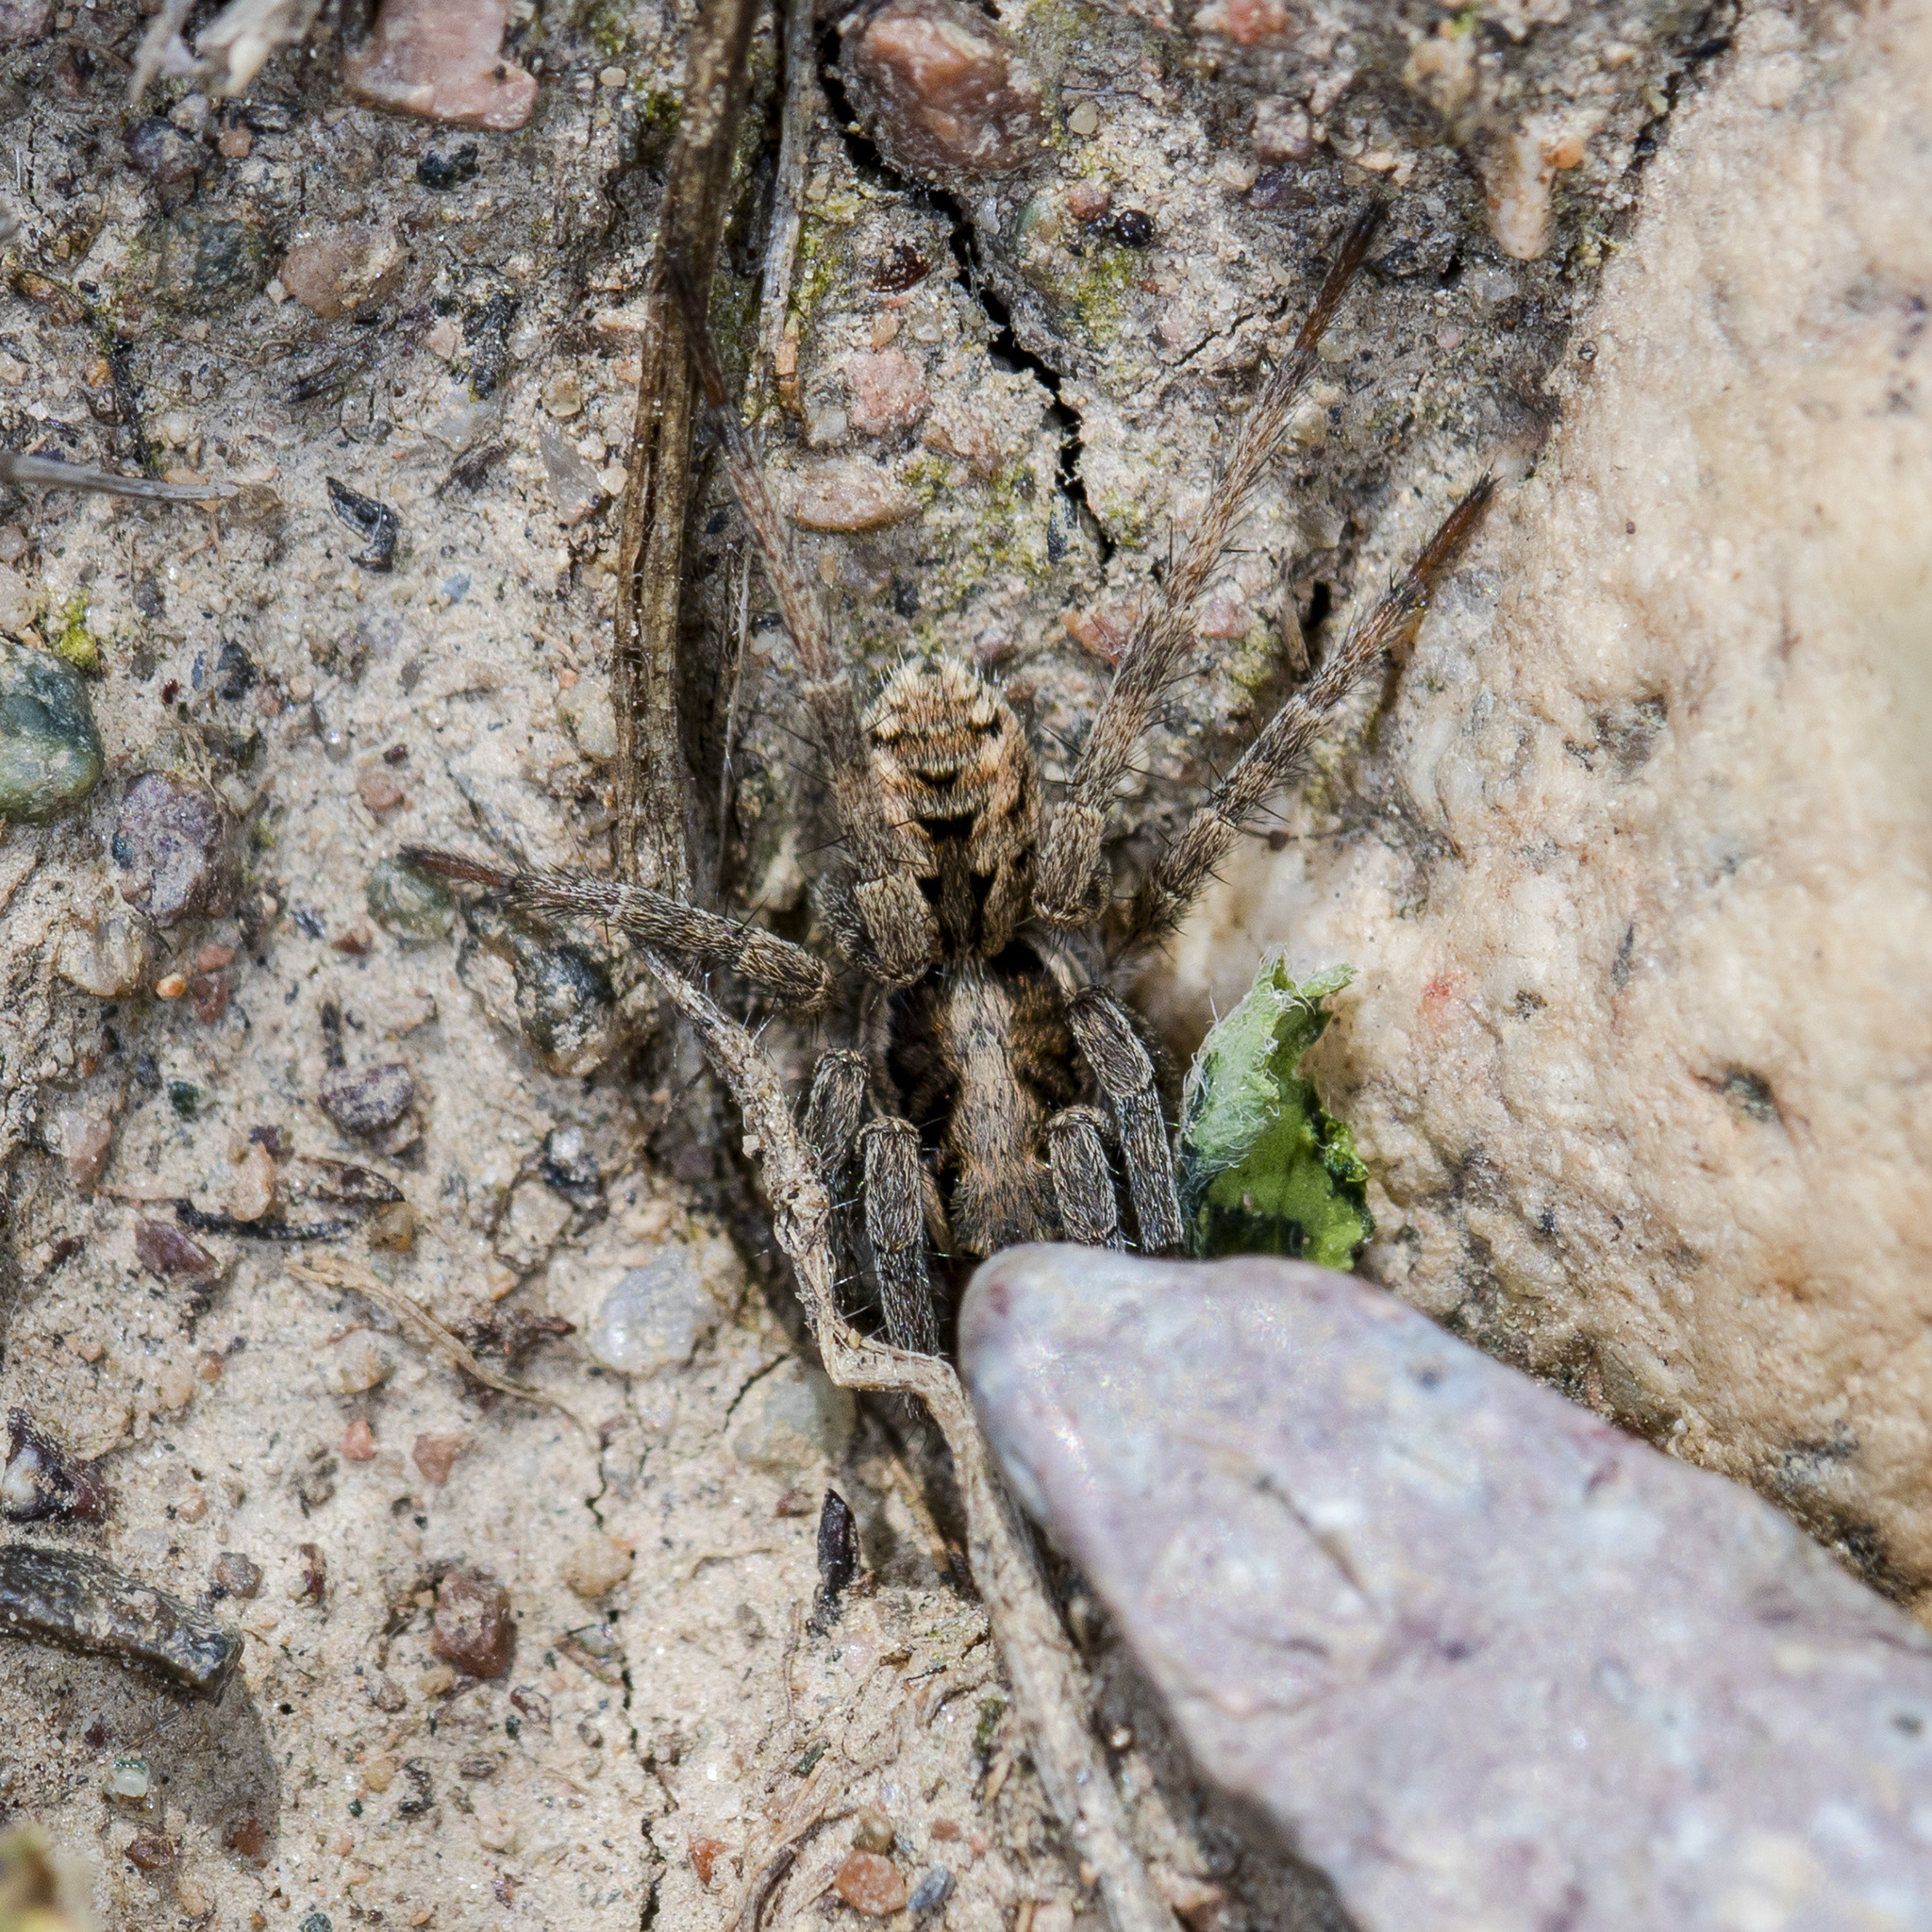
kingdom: Animalia
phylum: Arthropoda
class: Arachnida
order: Araneae
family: Lycosidae
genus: Lycosa
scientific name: Lycosa praegrandis
